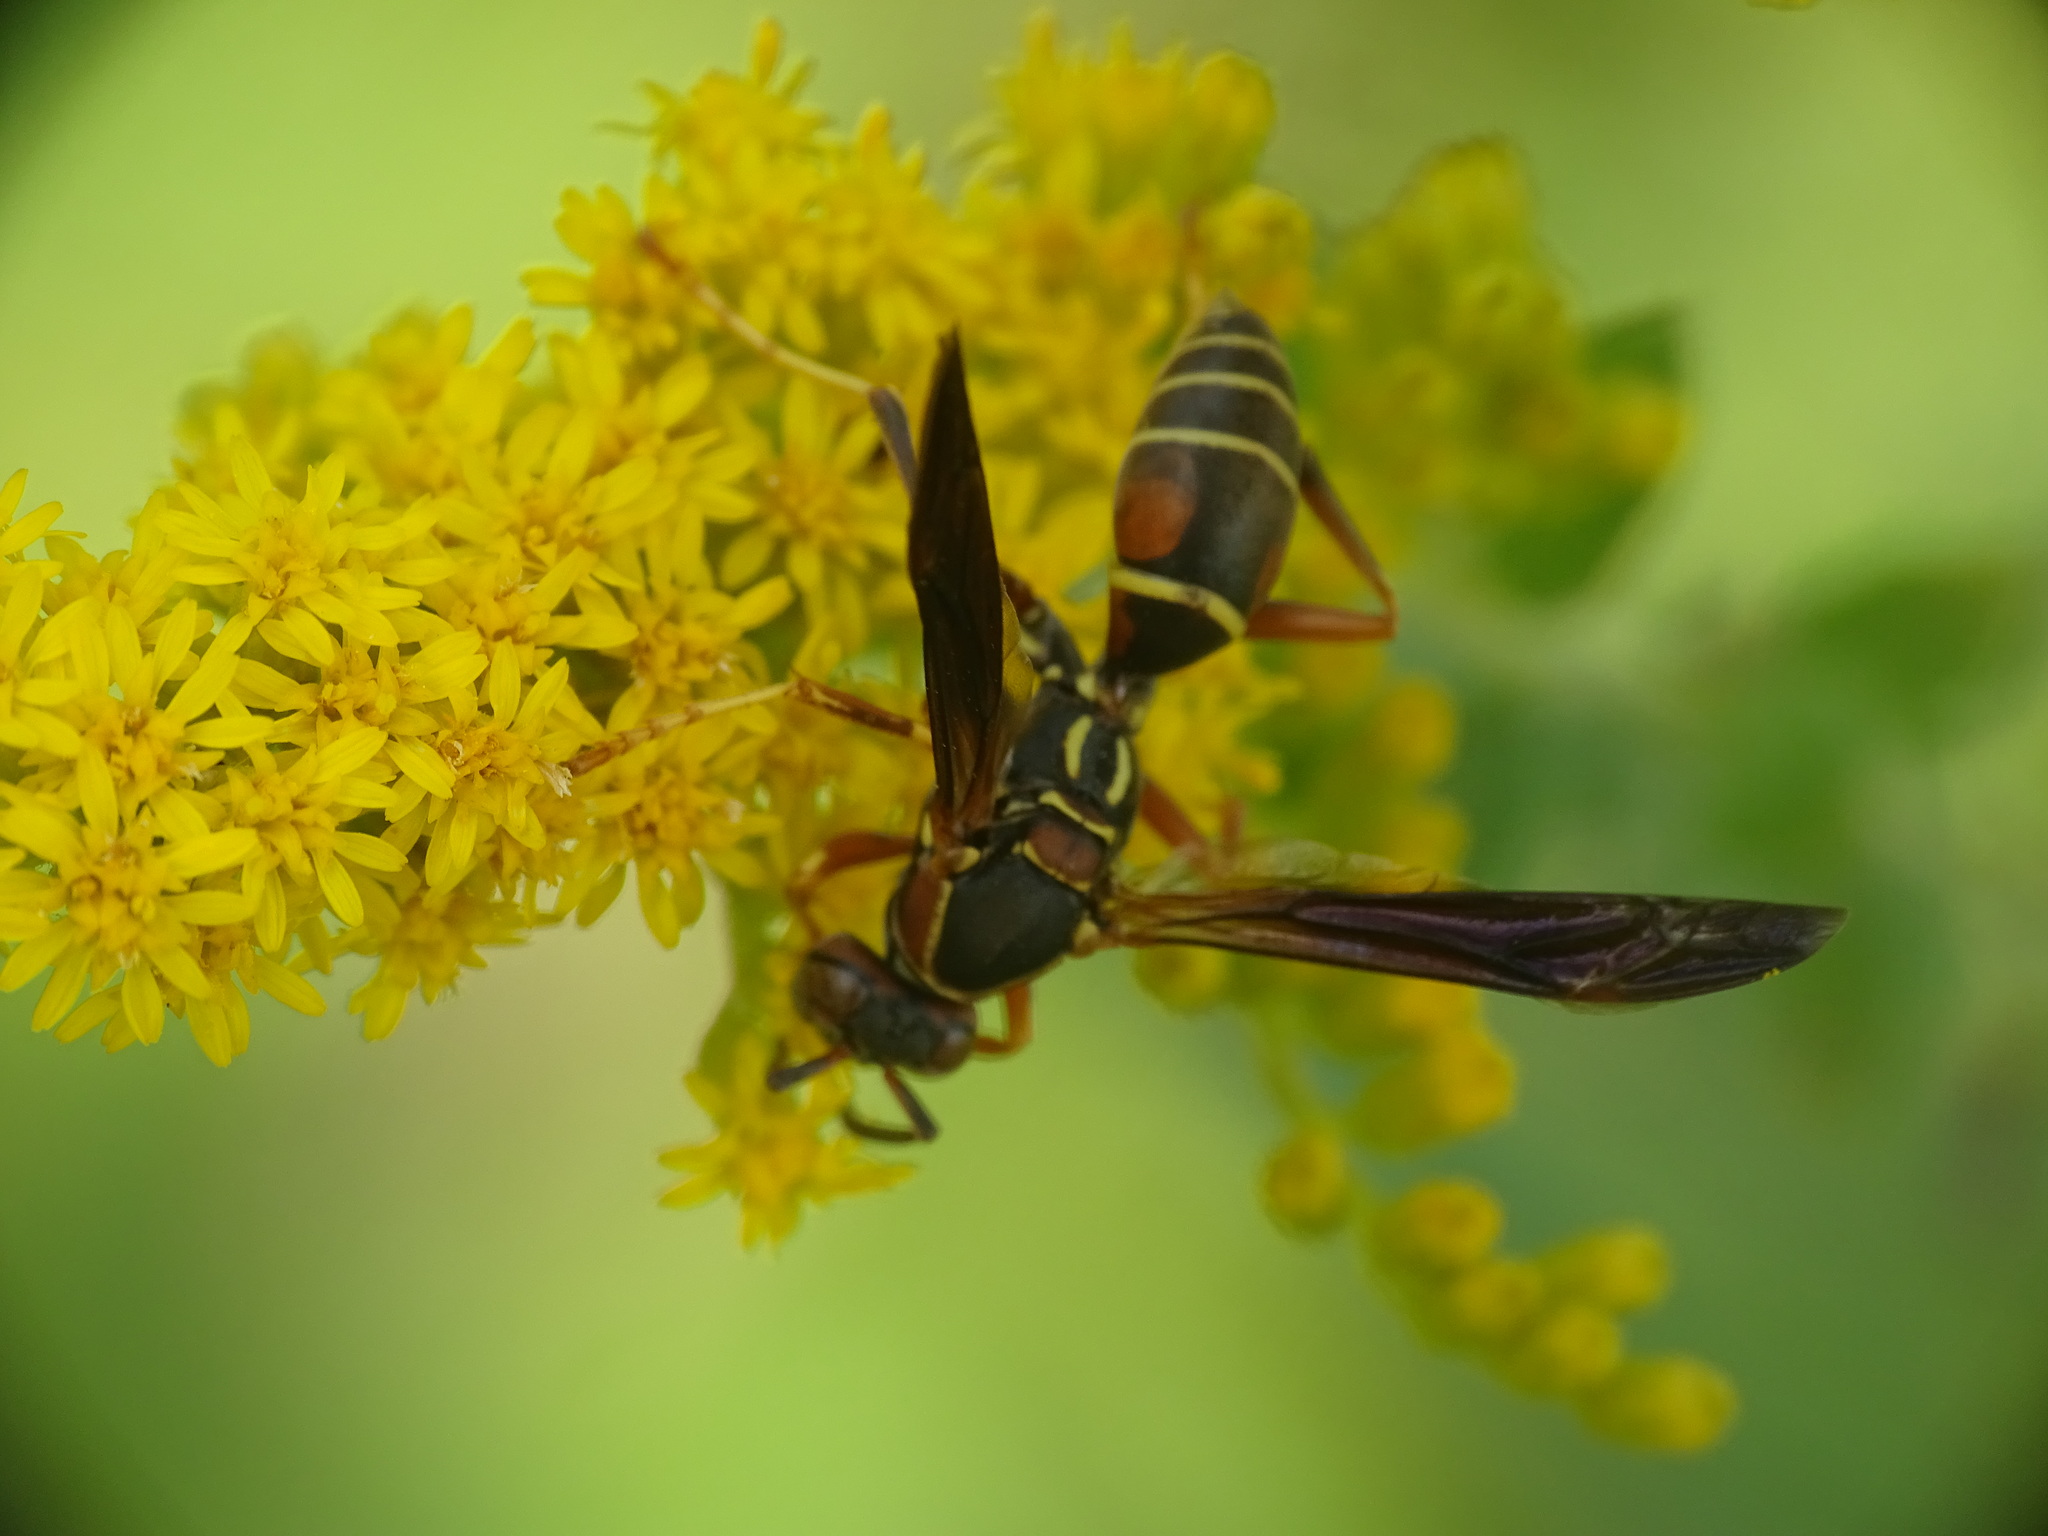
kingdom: Animalia
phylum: Arthropoda
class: Insecta
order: Hymenoptera
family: Eumenidae
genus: Polistes
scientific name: Polistes fuscatus
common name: Dark paper wasp
